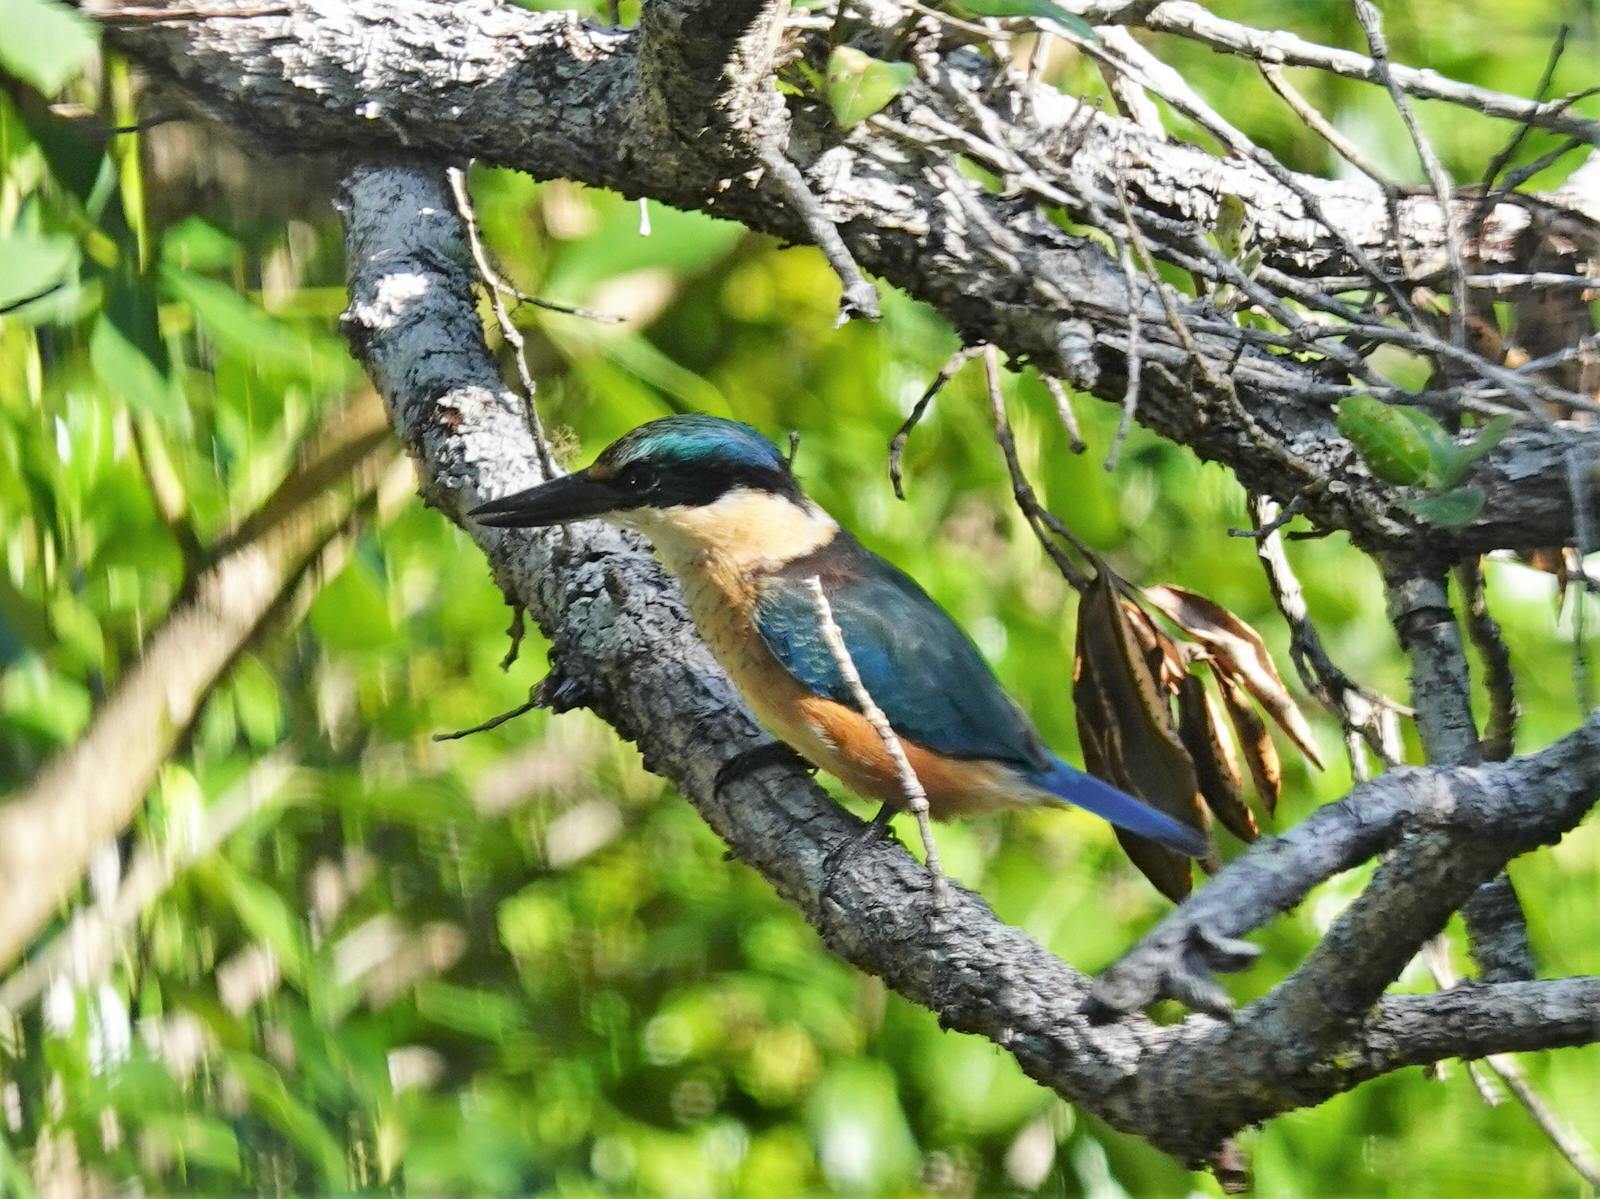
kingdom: Animalia
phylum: Chordata
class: Aves
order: Coraciiformes
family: Alcedinidae
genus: Todiramphus
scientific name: Todiramphus sanctus
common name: Sacred kingfisher
